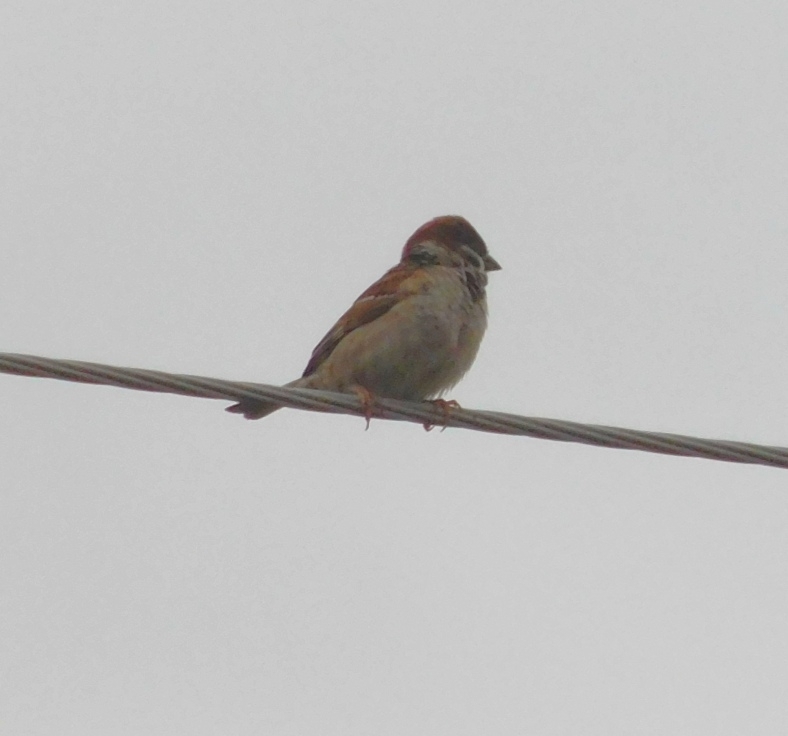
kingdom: Animalia
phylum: Chordata
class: Aves
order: Passeriformes
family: Passeridae
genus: Passer
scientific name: Passer montanus
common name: Eurasian tree sparrow
